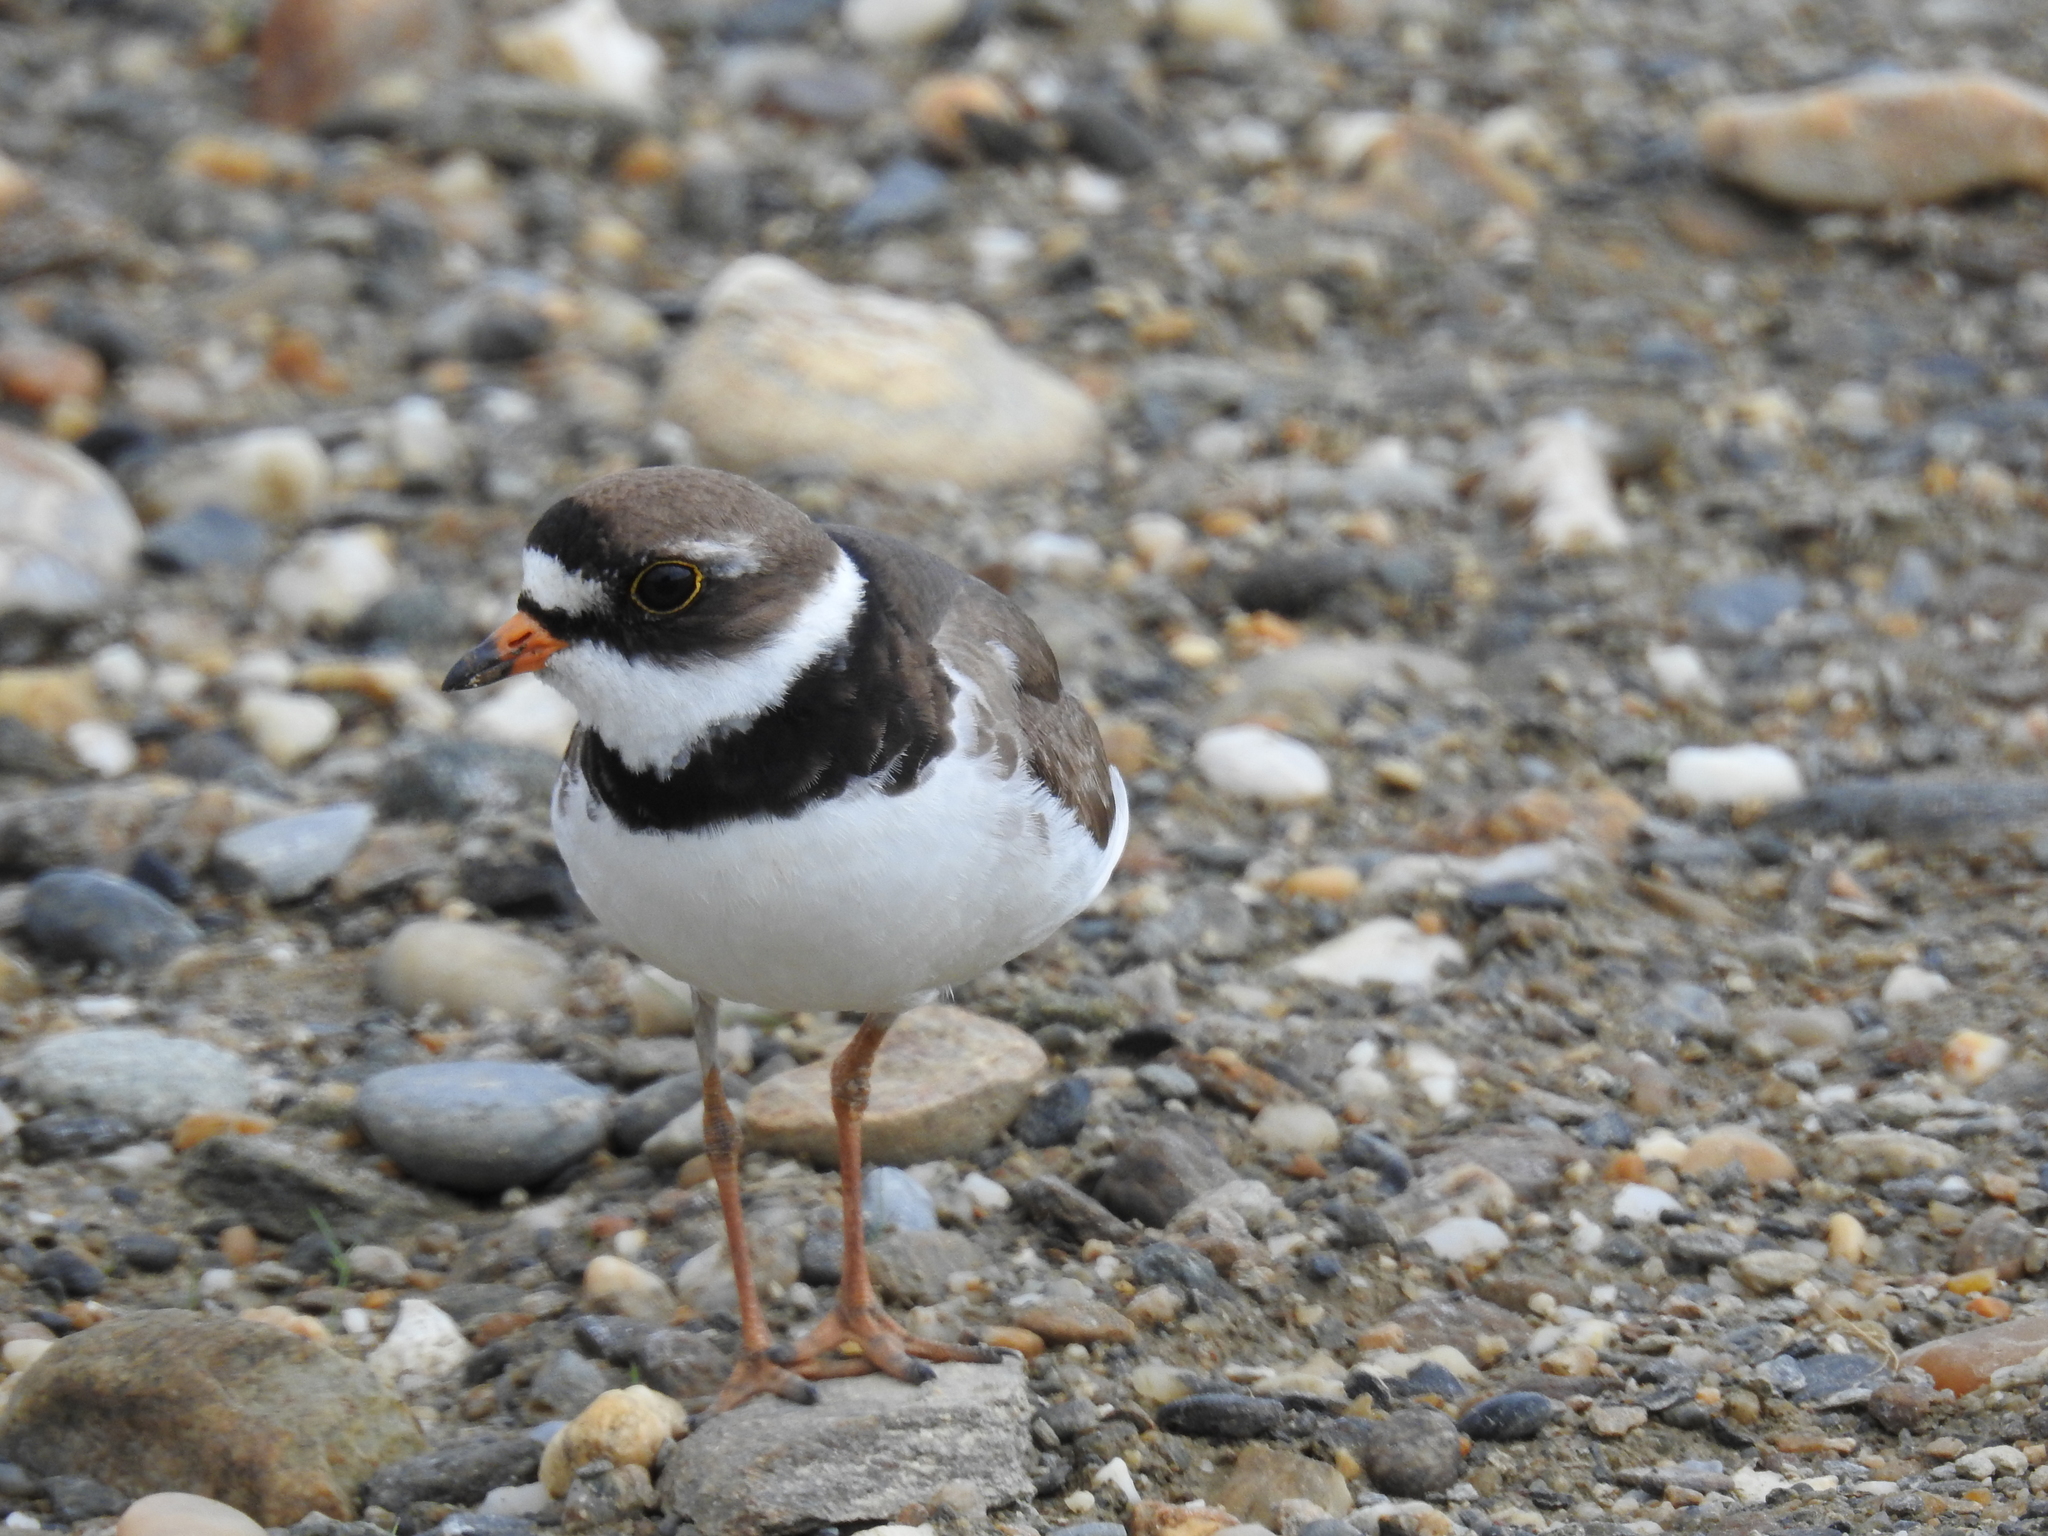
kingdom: Animalia
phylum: Chordata
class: Aves
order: Charadriiformes
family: Charadriidae
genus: Charadrius
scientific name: Charadrius semipalmatus
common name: Semipalmated plover
